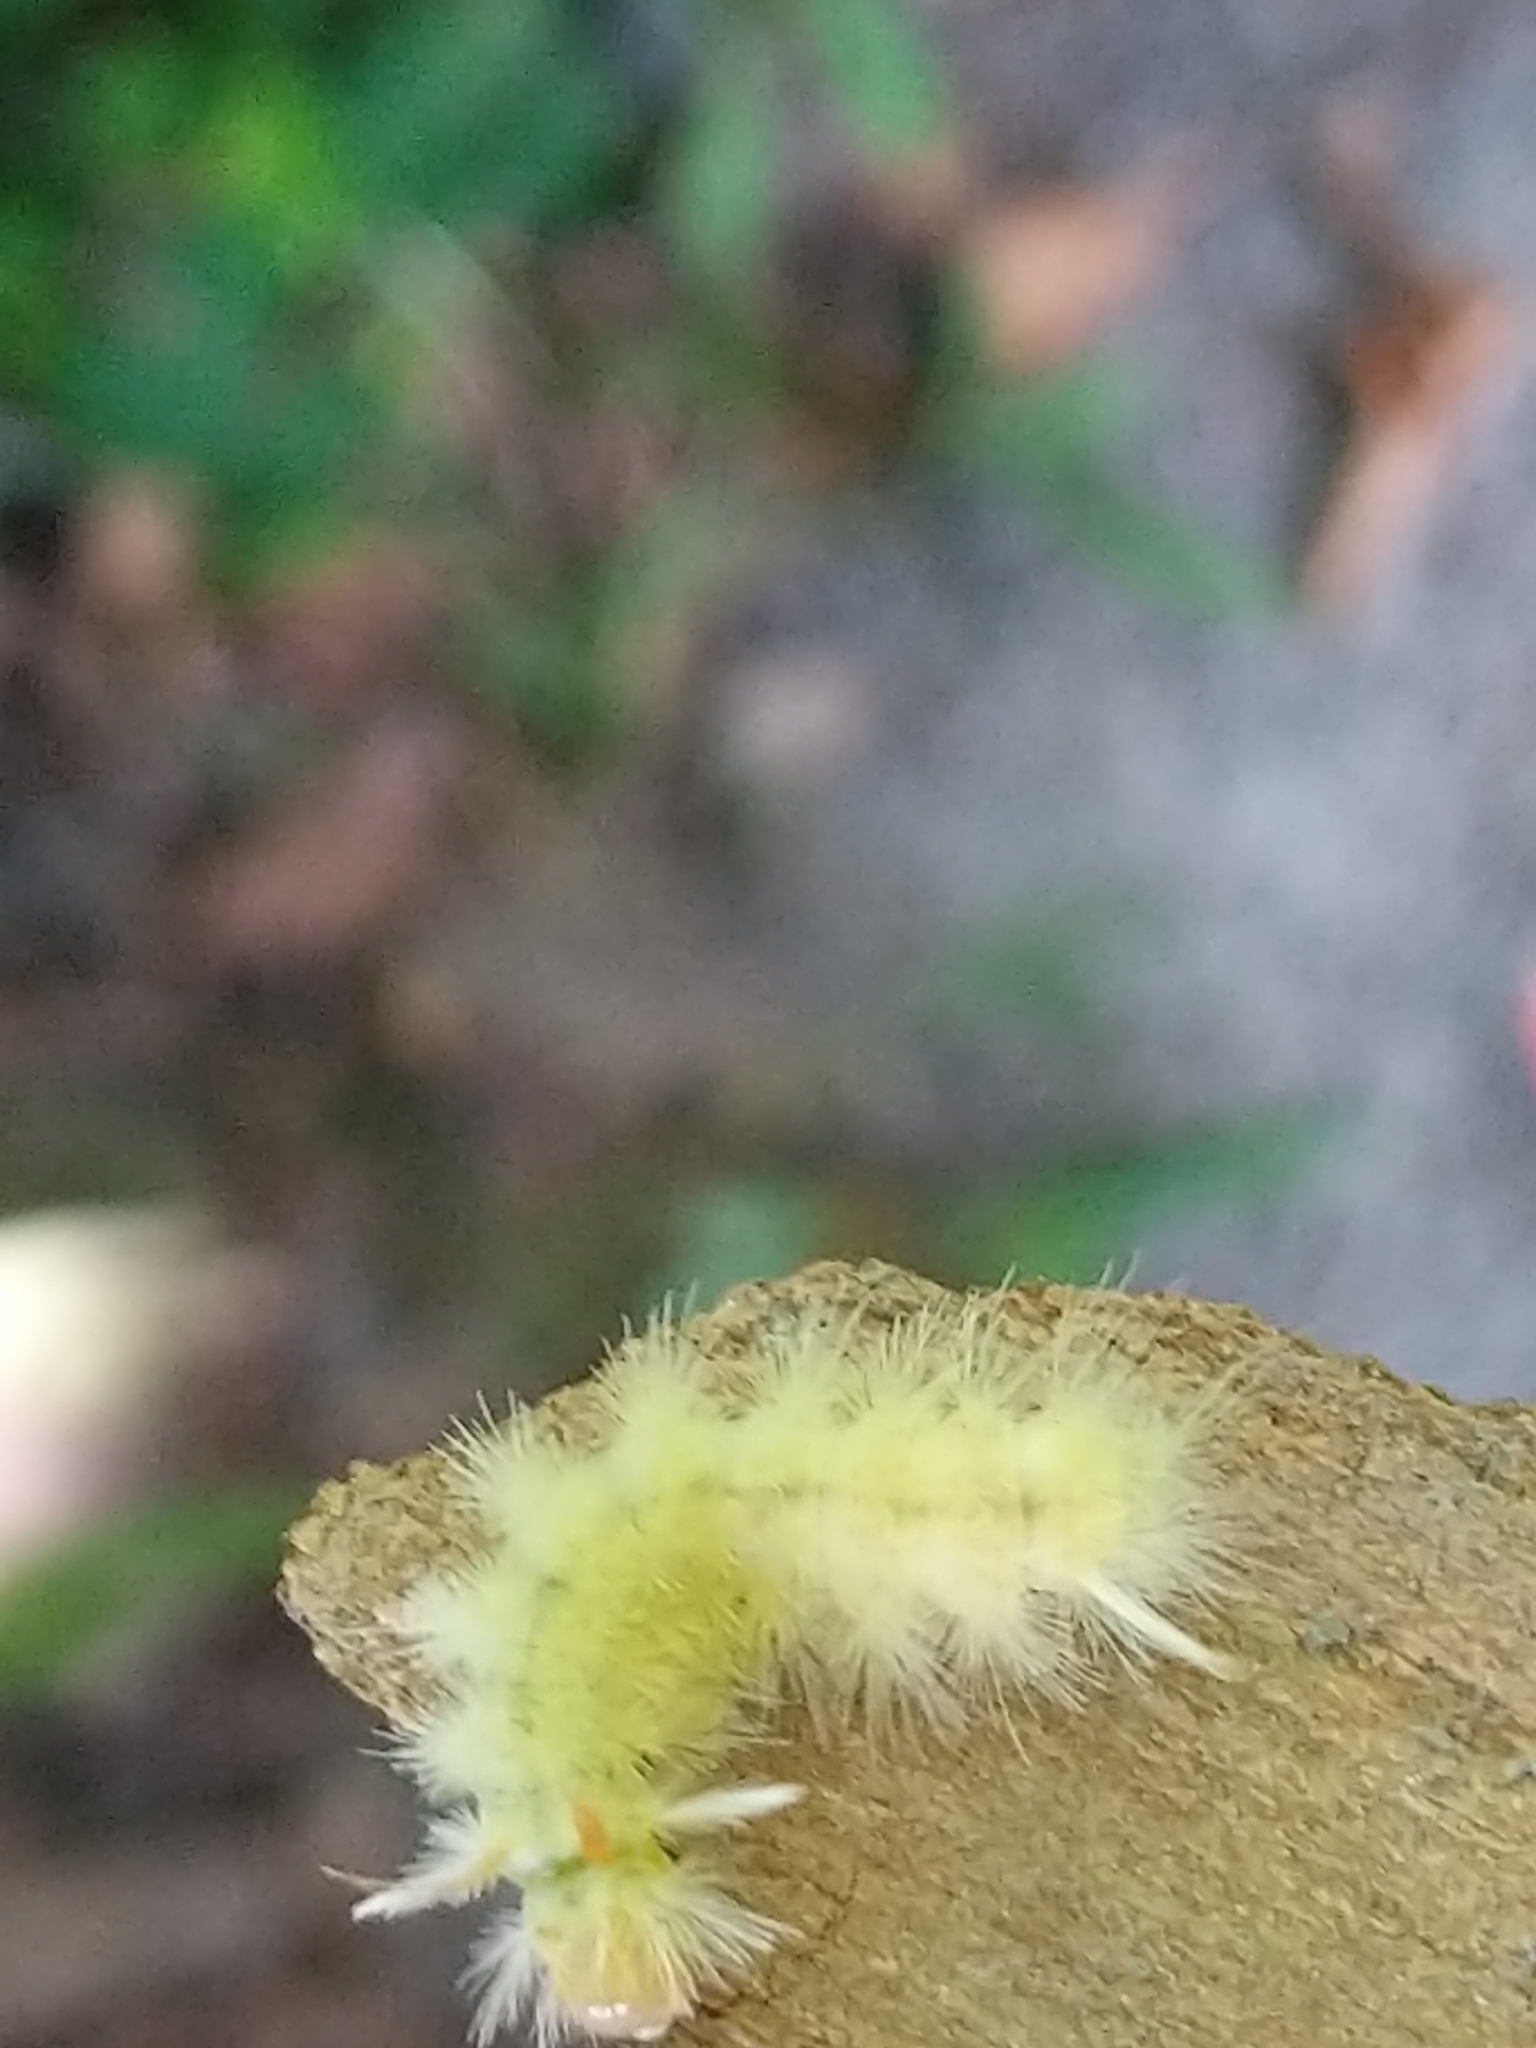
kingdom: Animalia
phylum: Arthropoda
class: Insecta
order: Lepidoptera
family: Erebidae
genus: Halysidota
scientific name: Halysidota harrisii
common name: Sycamore tussock moth
